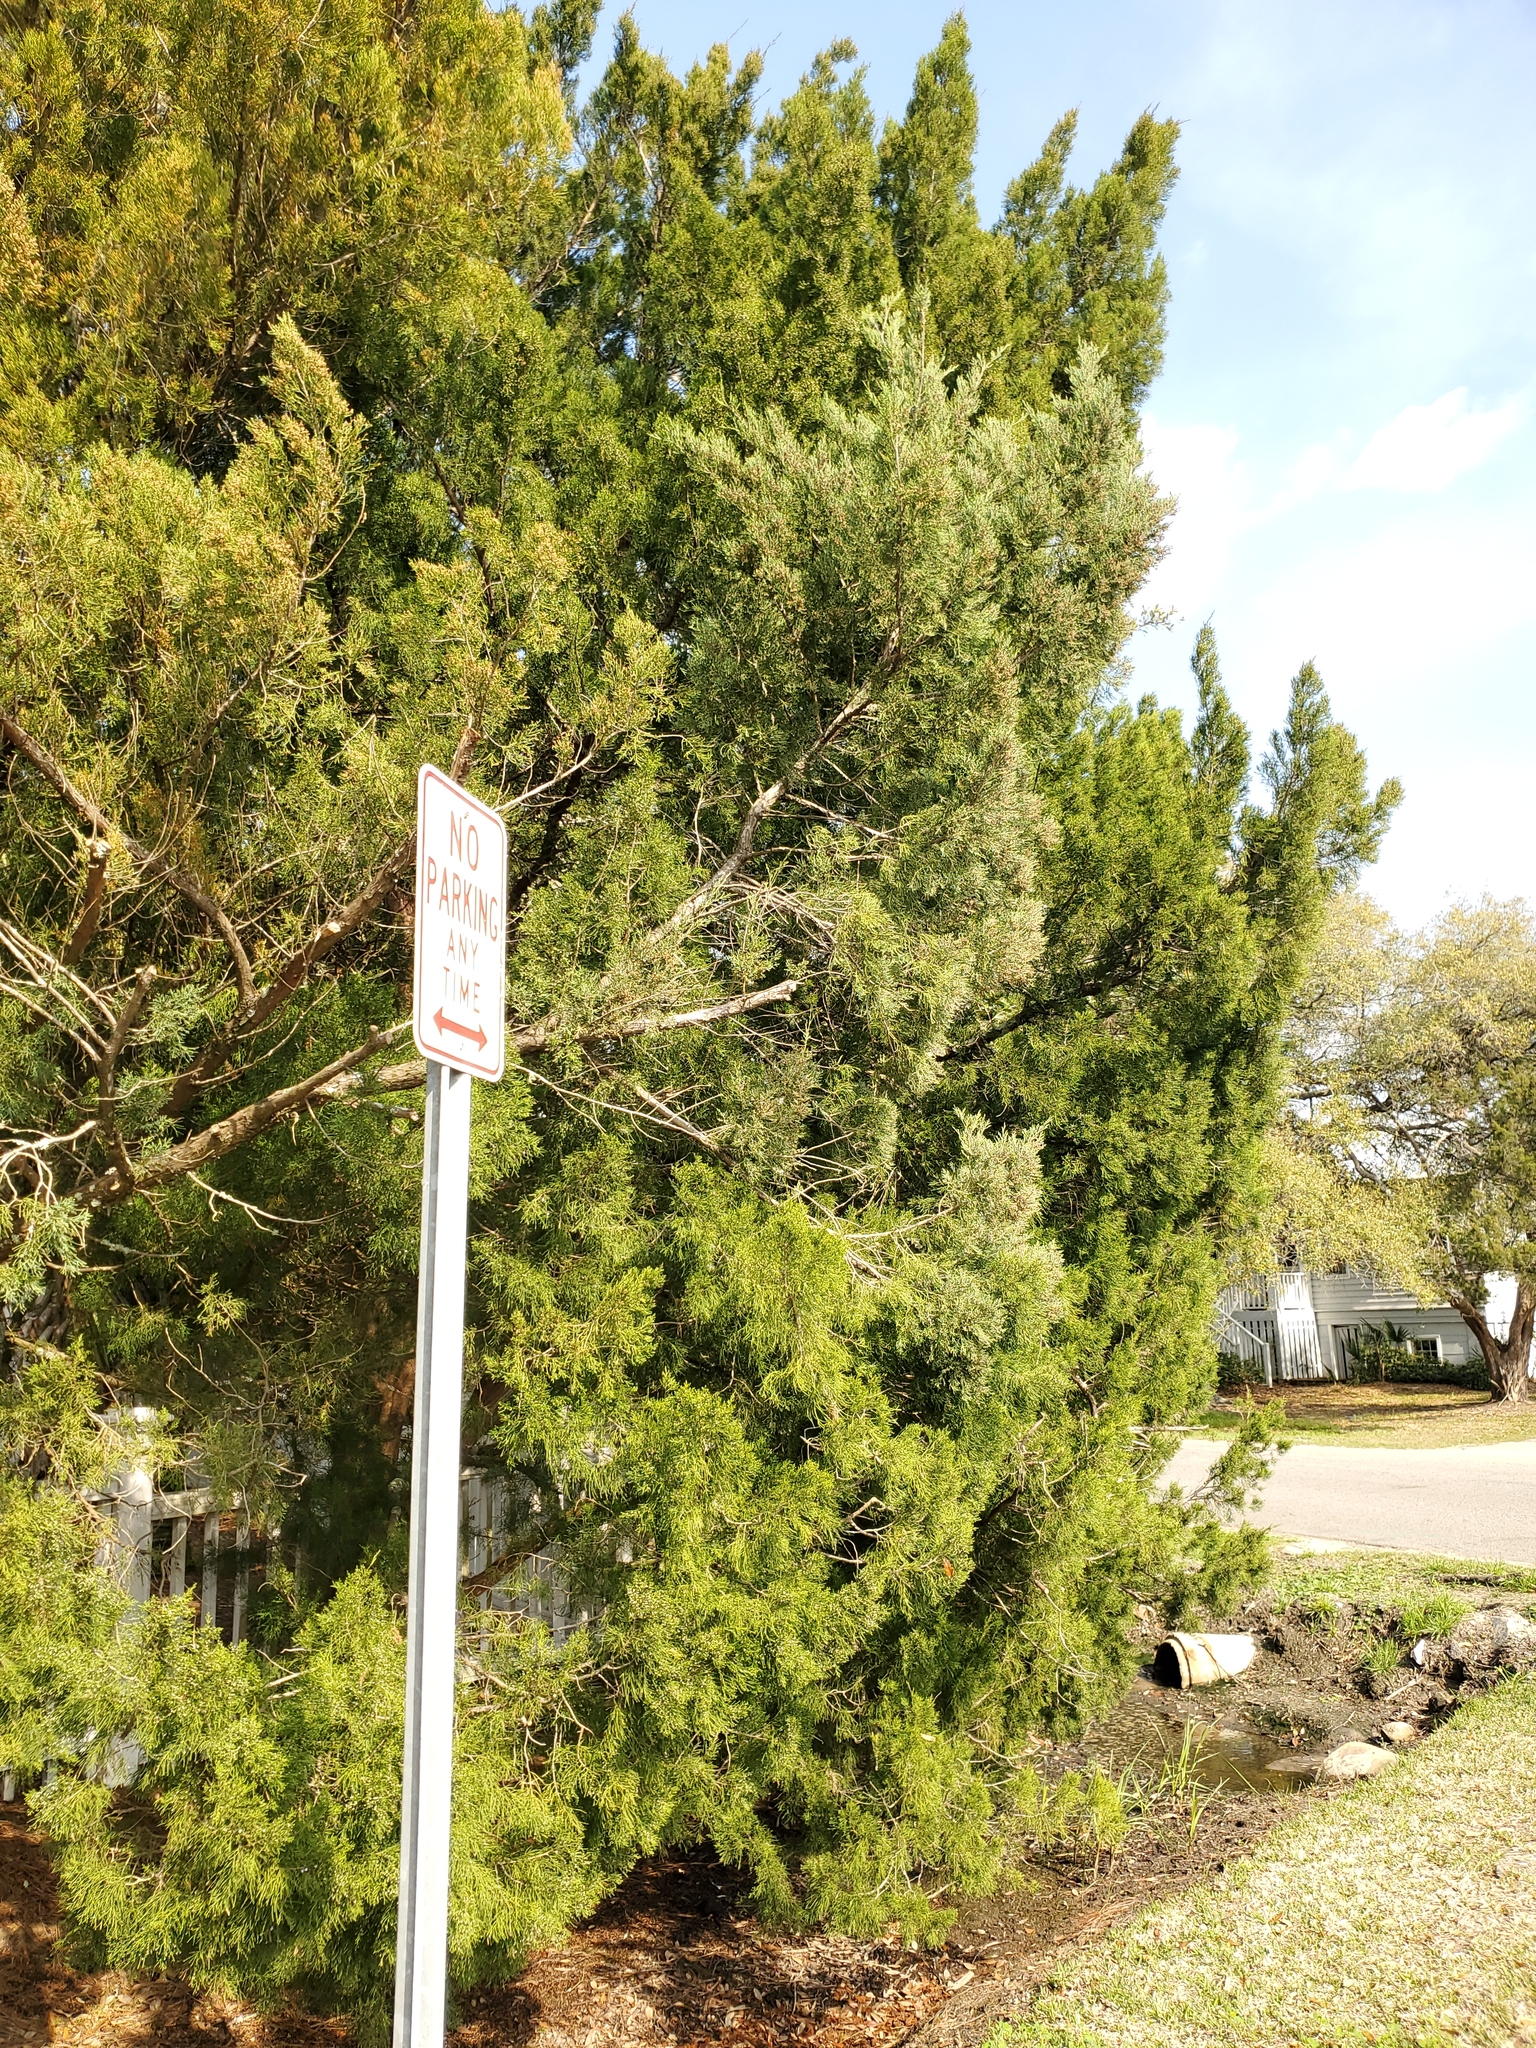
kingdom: Plantae
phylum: Tracheophyta
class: Pinopsida
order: Pinales
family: Cupressaceae
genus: Juniperus
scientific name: Juniperus virginiana
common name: Red juniper
